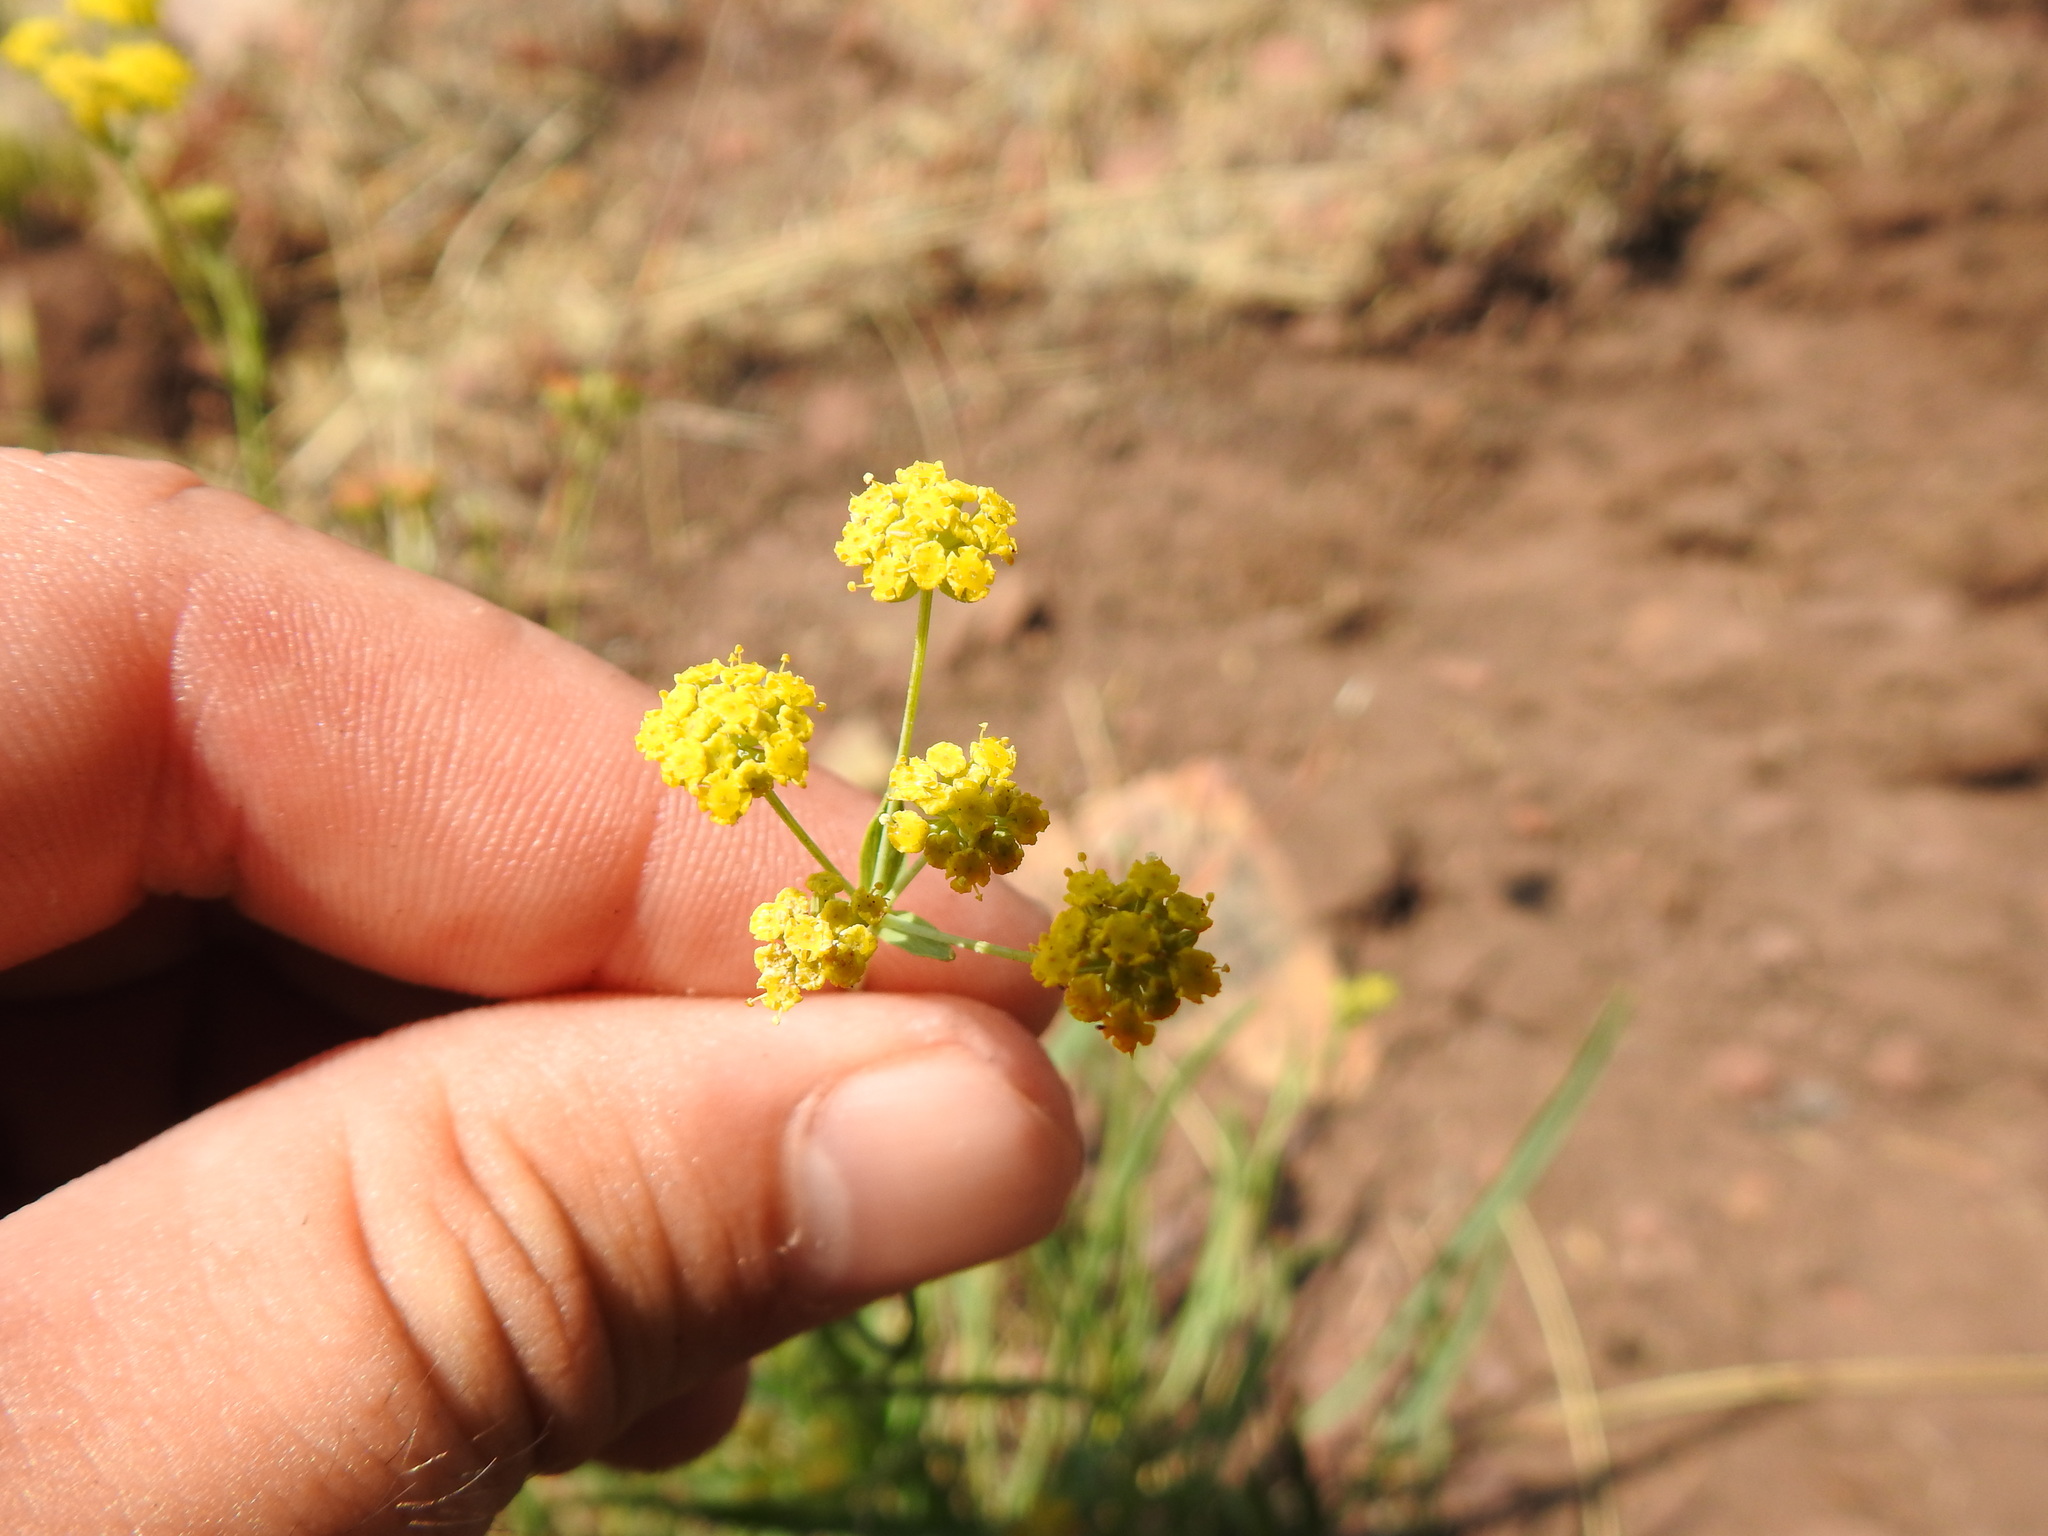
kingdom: Plantae
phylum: Tracheophyta
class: Magnoliopsida
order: Apiales
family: Apiaceae
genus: Foeniculum
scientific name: Foeniculum vulgare
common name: Fennel
